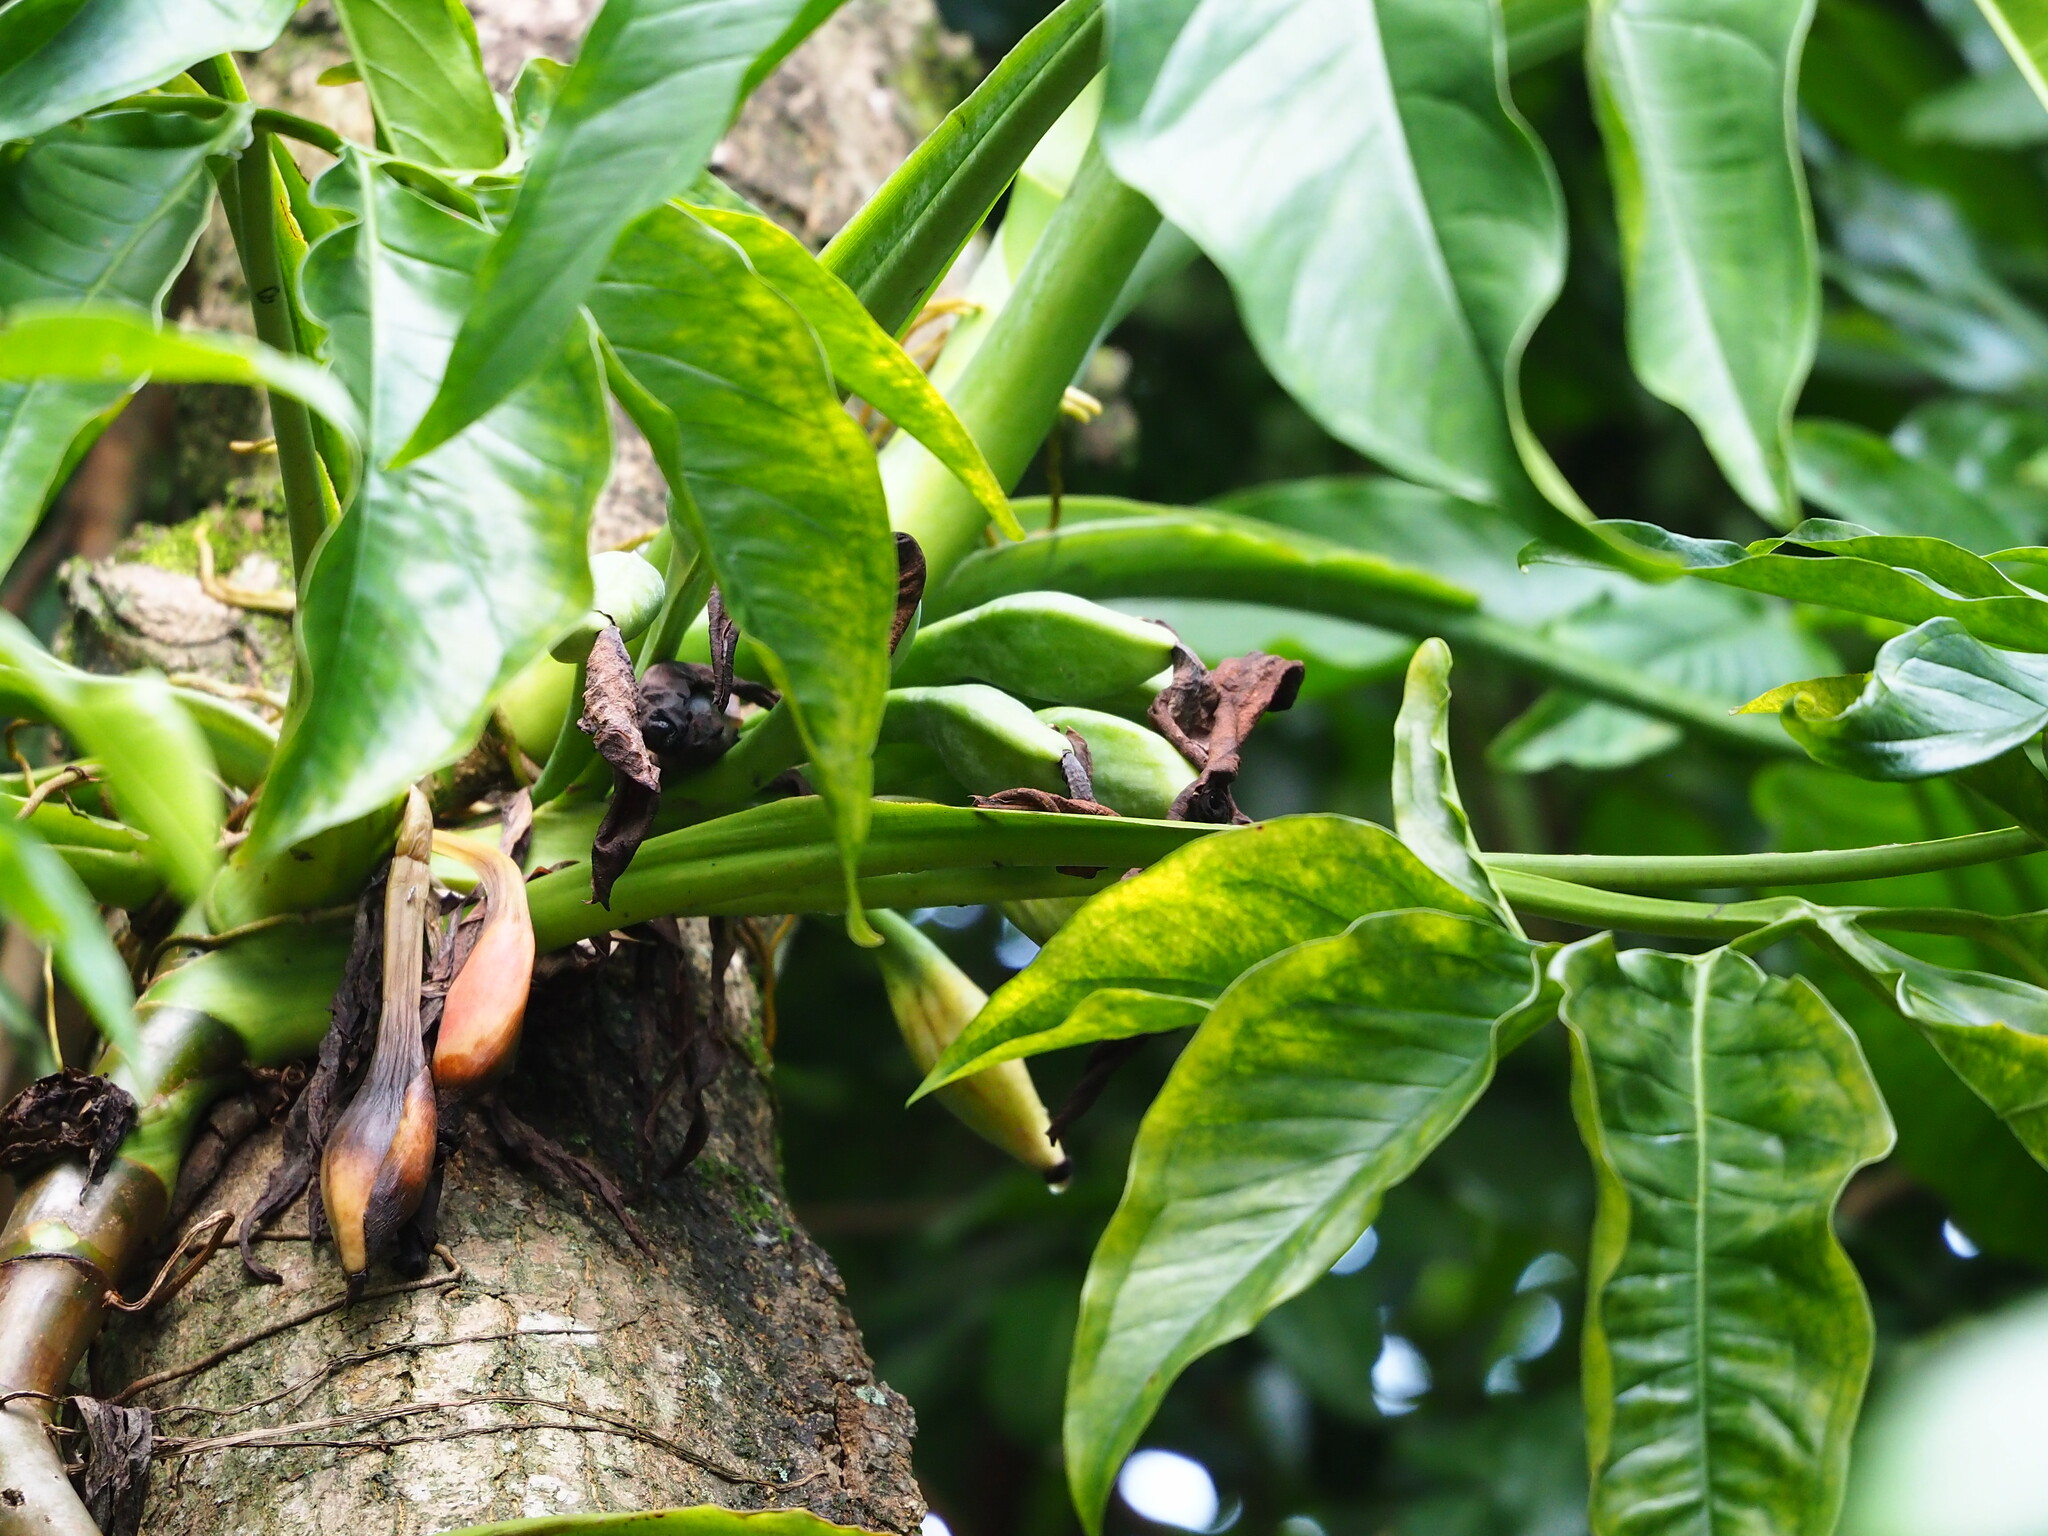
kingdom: Plantae
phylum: Tracheophyta
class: Liliopsida
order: Alismatales
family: Araceae
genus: Syngonium
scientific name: Syngonium angustatum
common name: Fivefingers
